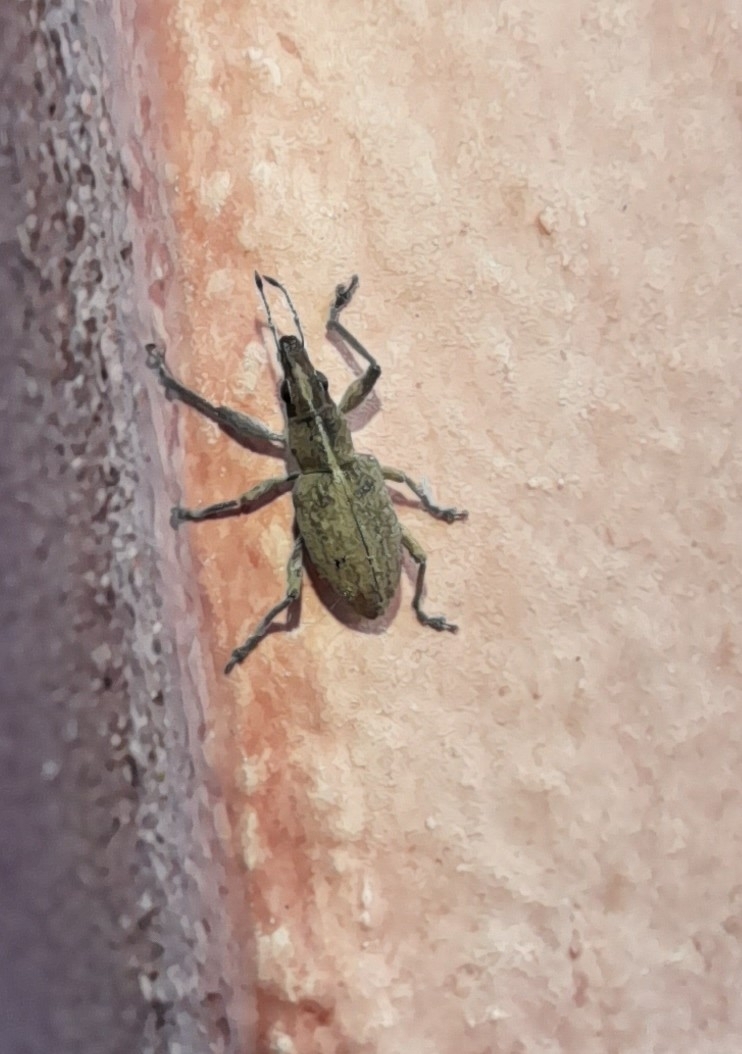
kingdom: Animalia
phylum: Arthropoda
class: Insecta
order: Coleoptera
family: Curculionidae
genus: Charagmus
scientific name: Charagmus gressorius
